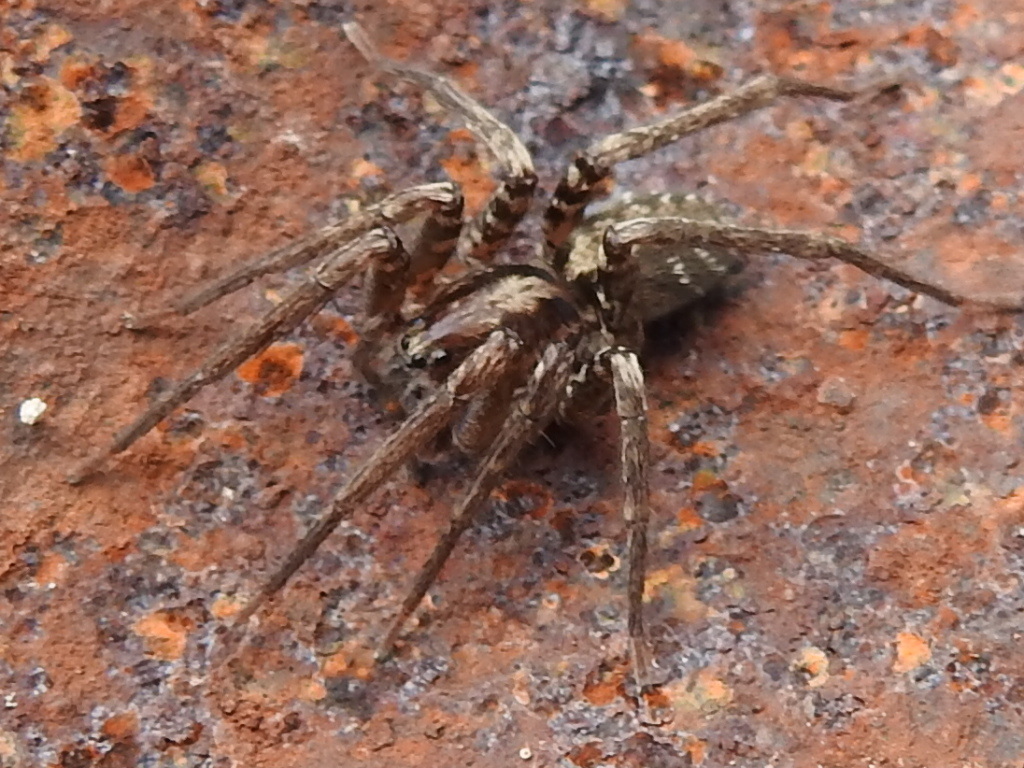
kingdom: Animalia
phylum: Arthropoda
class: Arachnida
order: Araneae
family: Ctenidae
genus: Leptoctenus
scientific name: Leptoctenus byrrhus
